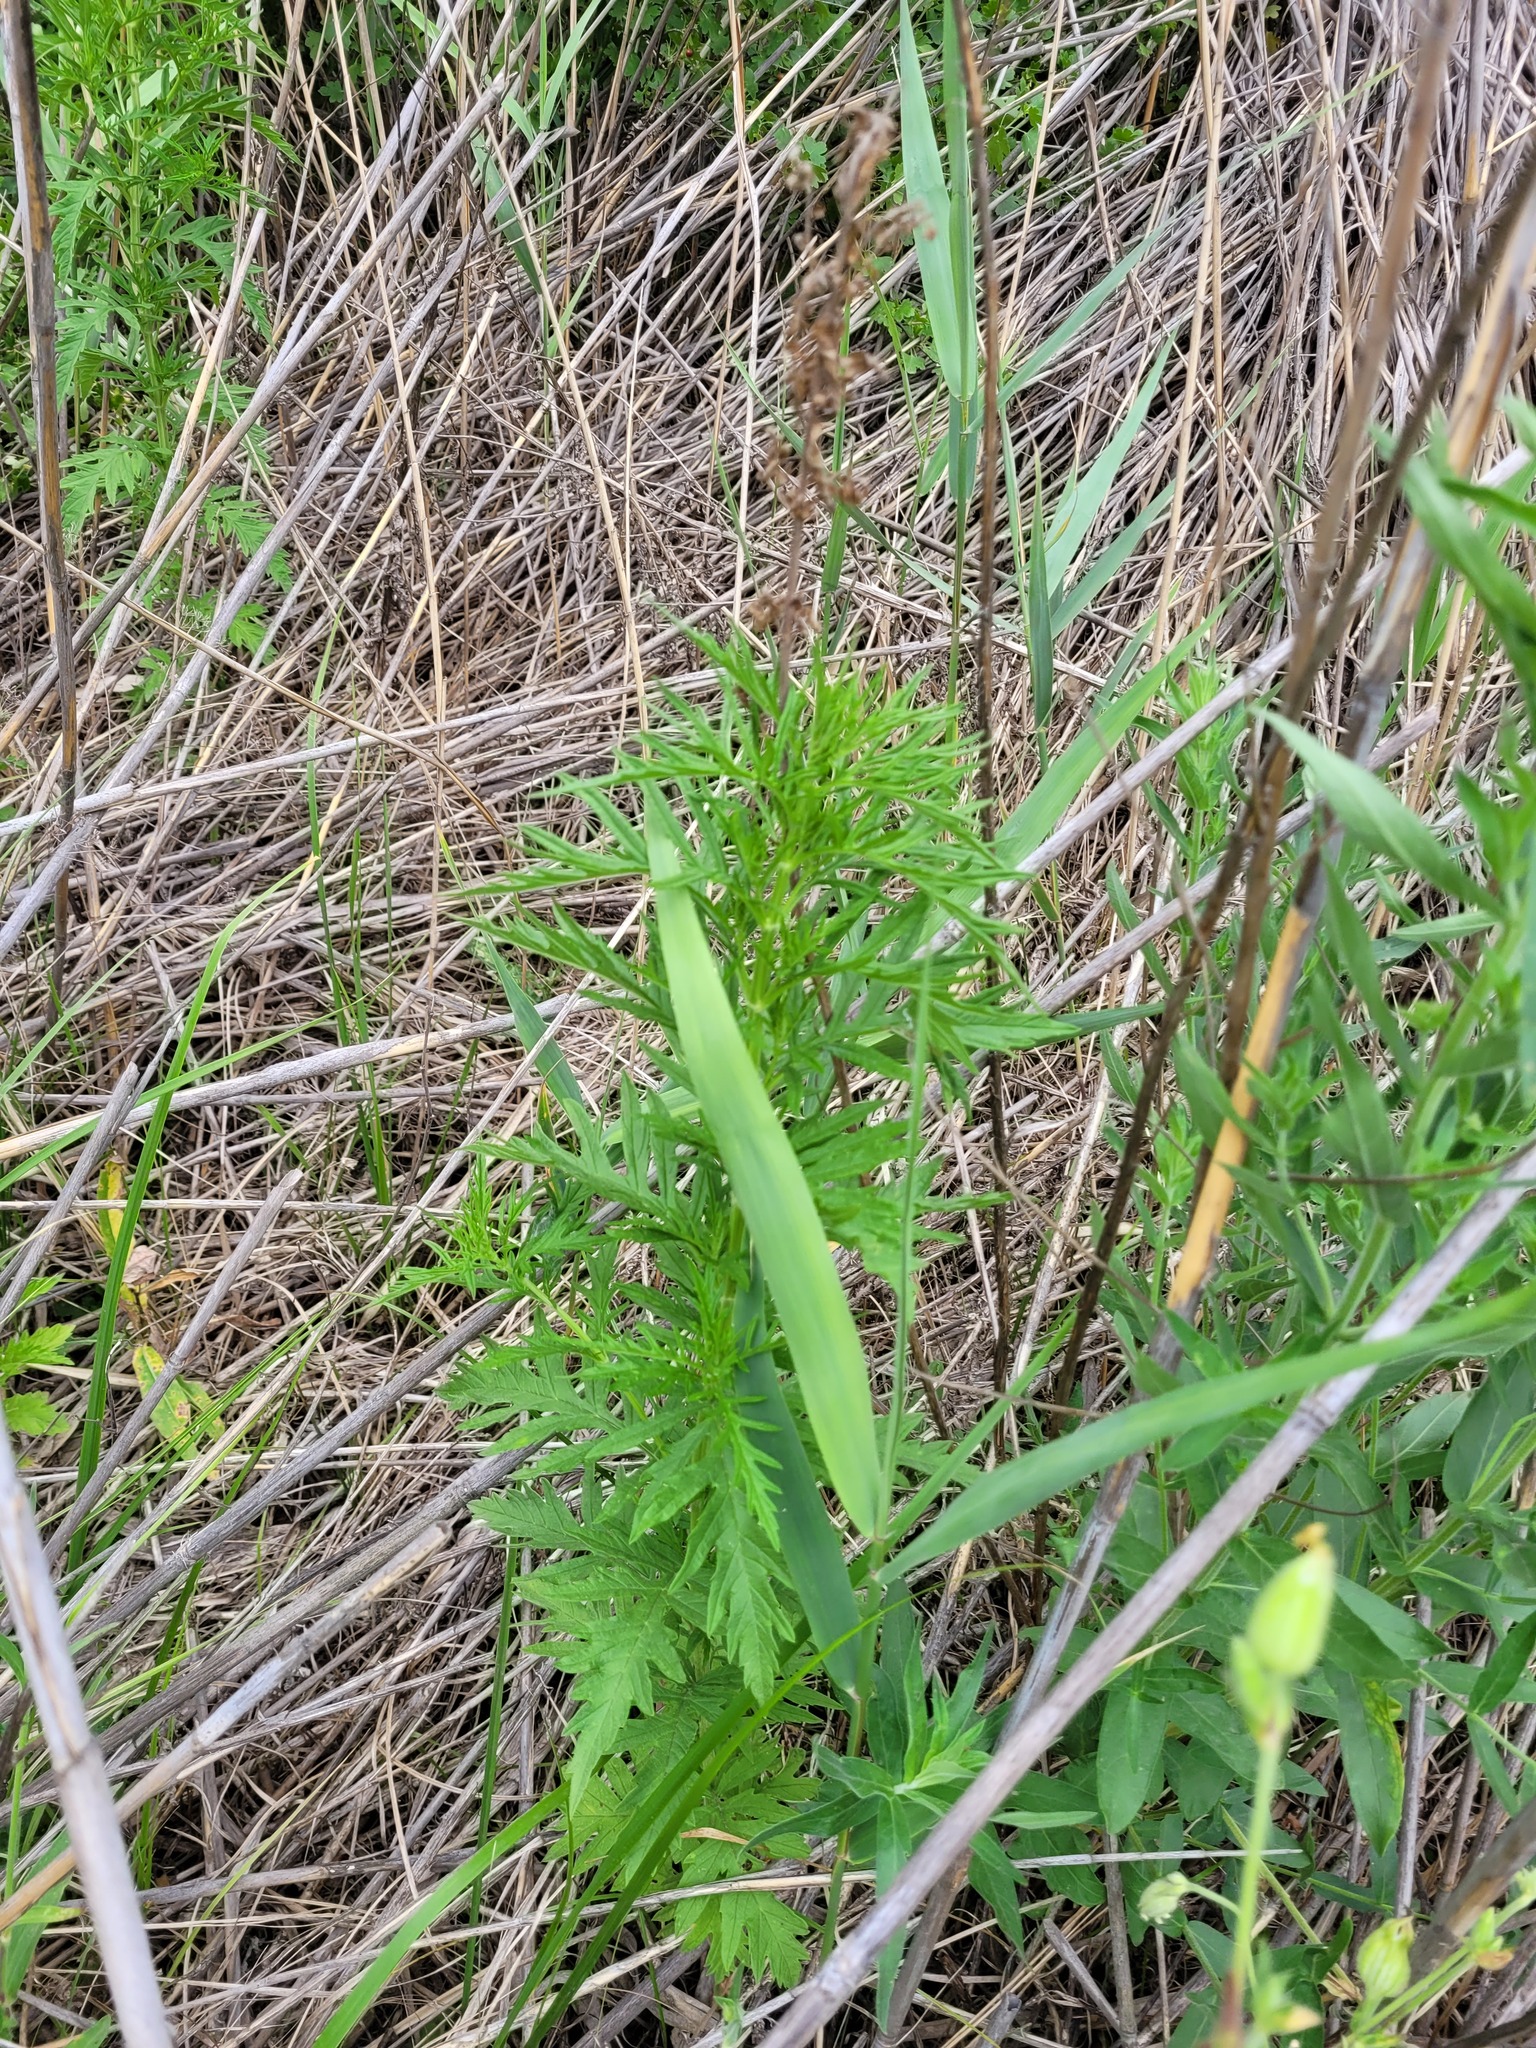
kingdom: Plantae
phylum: Tracheophyta
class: Magnoliopsida
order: Lamiales
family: Lamiaceae
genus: Lycopus
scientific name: Lycopus exaltatus
